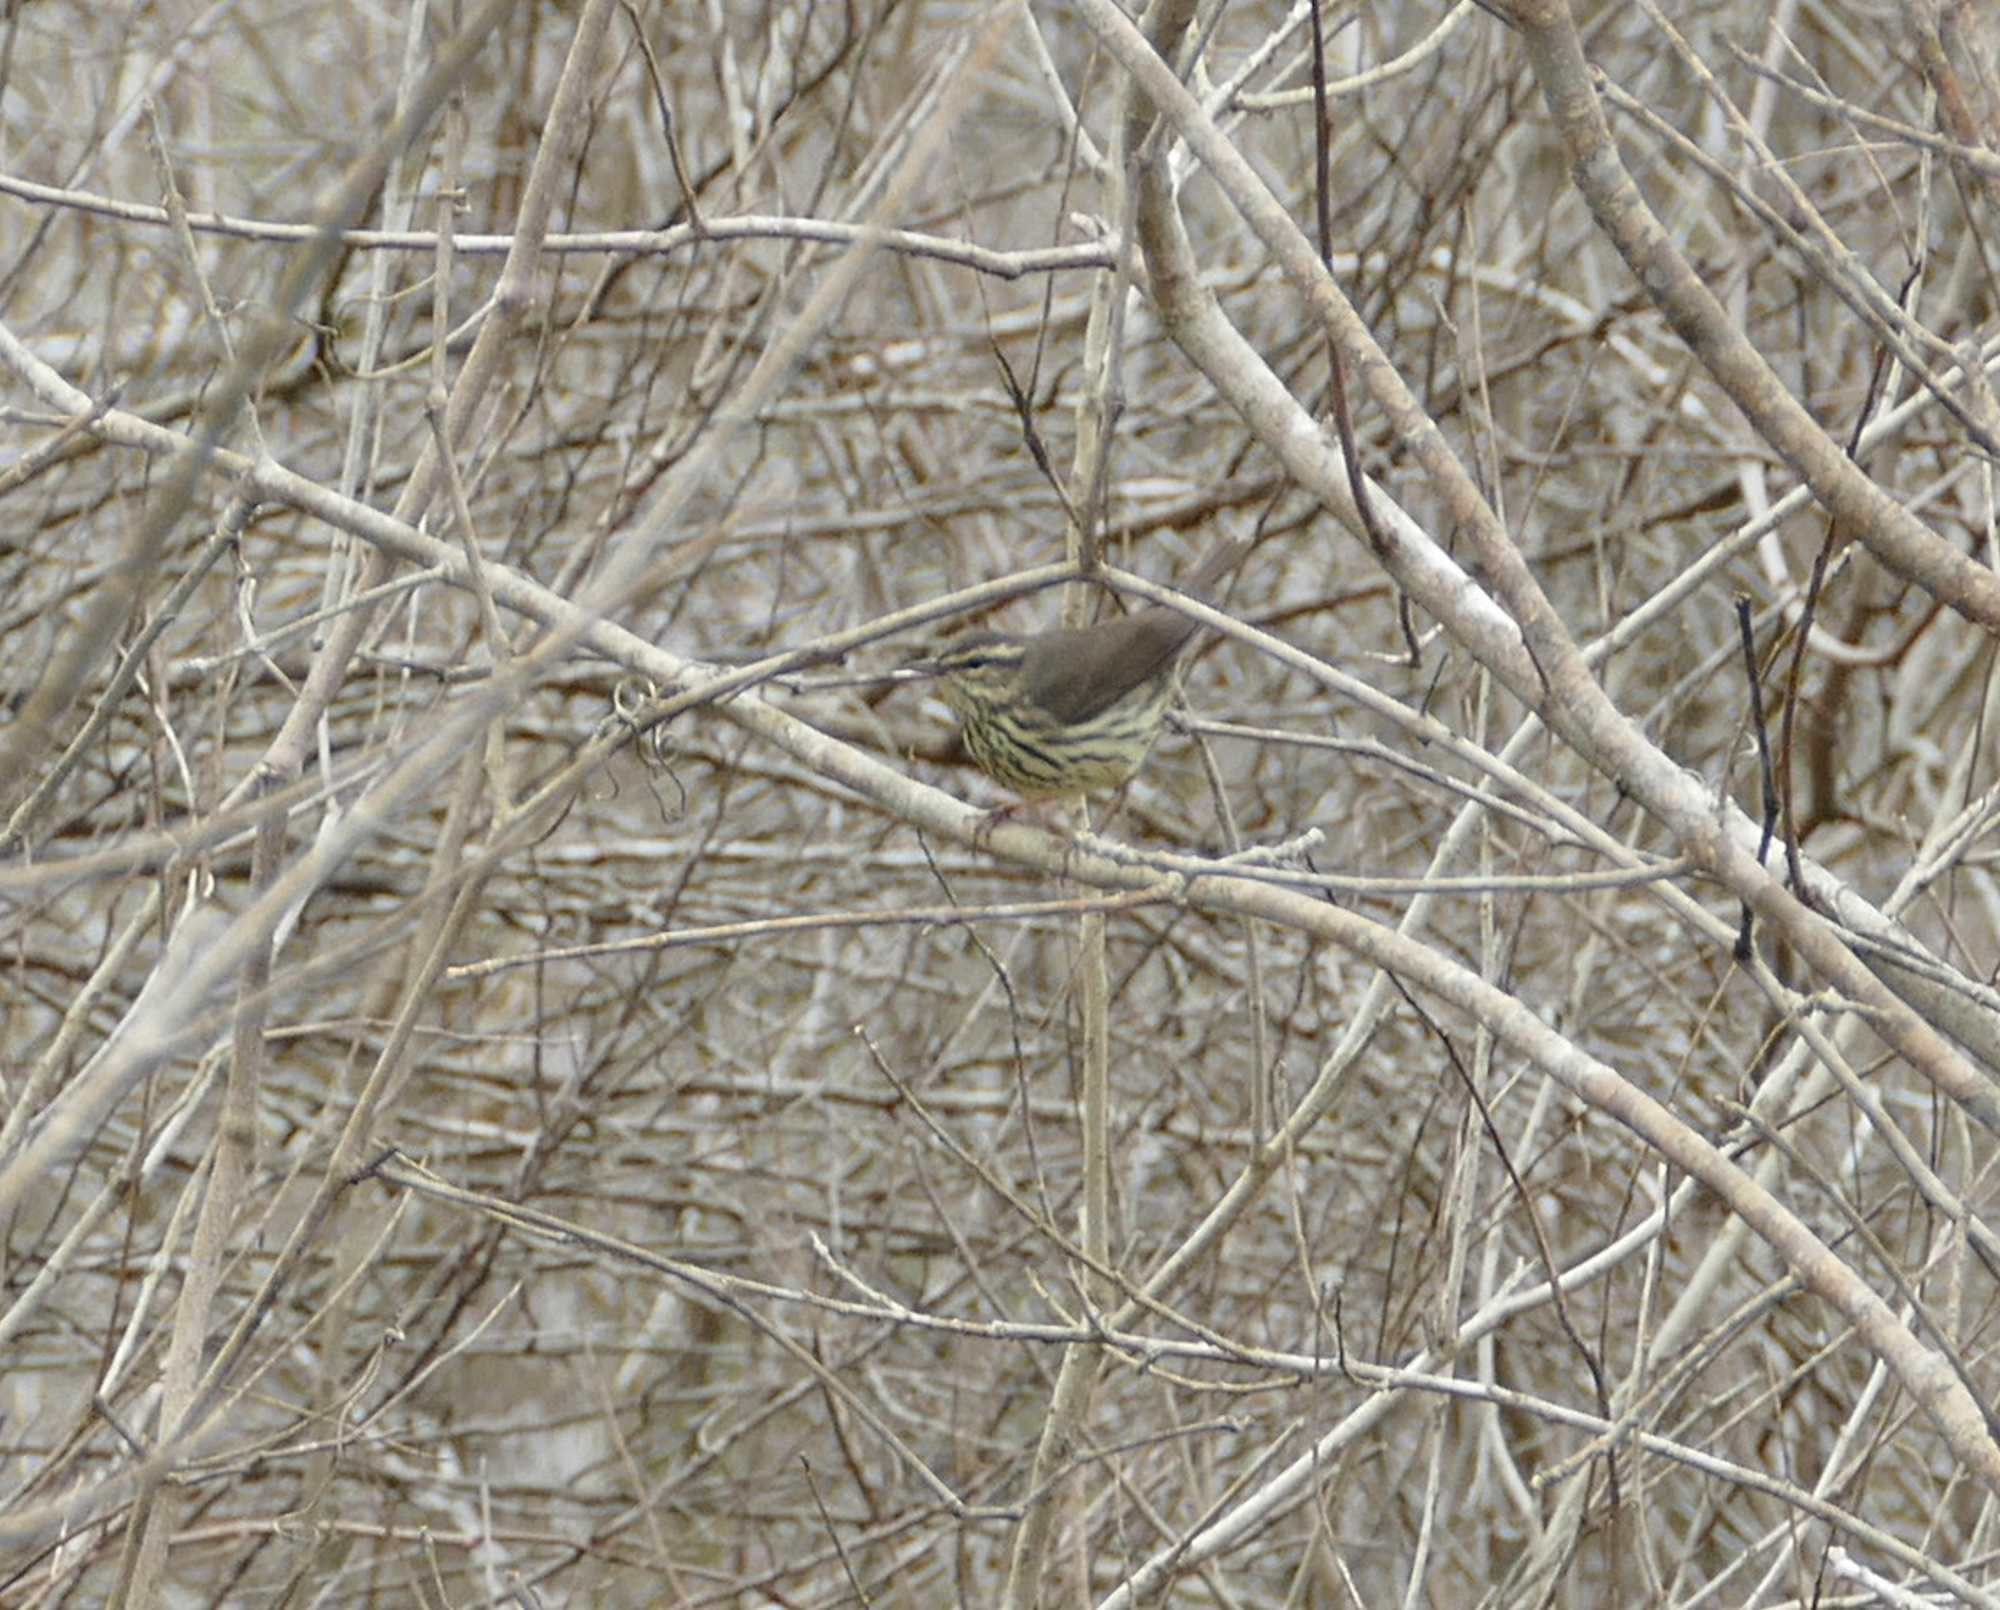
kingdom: Animalia
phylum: Chordata
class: Aves
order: Passeriformes
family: Parulidae
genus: Parkesia
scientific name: Parkesia noveboracensis
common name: Northern waterthrush
